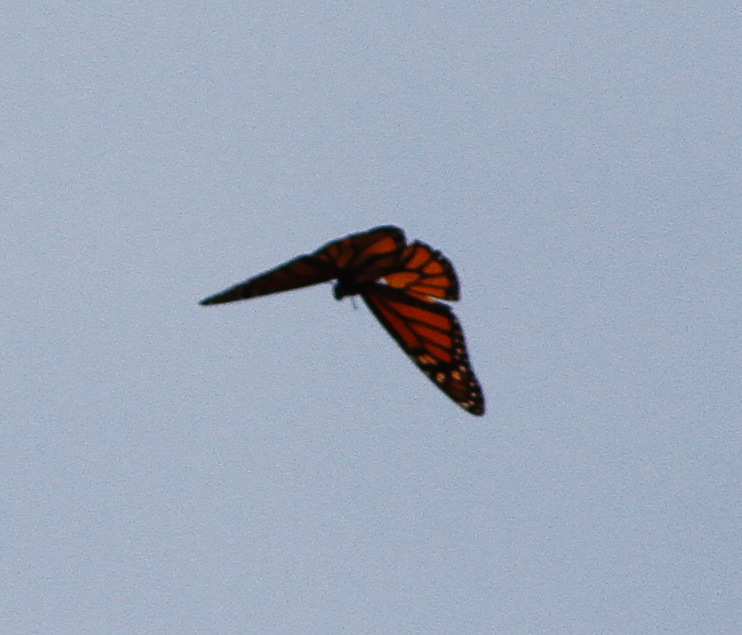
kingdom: Animalia
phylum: Arthropoda
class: Insecta
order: Lepidoptera
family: Nymphalidae
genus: Danaus
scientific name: Danaus plexippus
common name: Monarch
